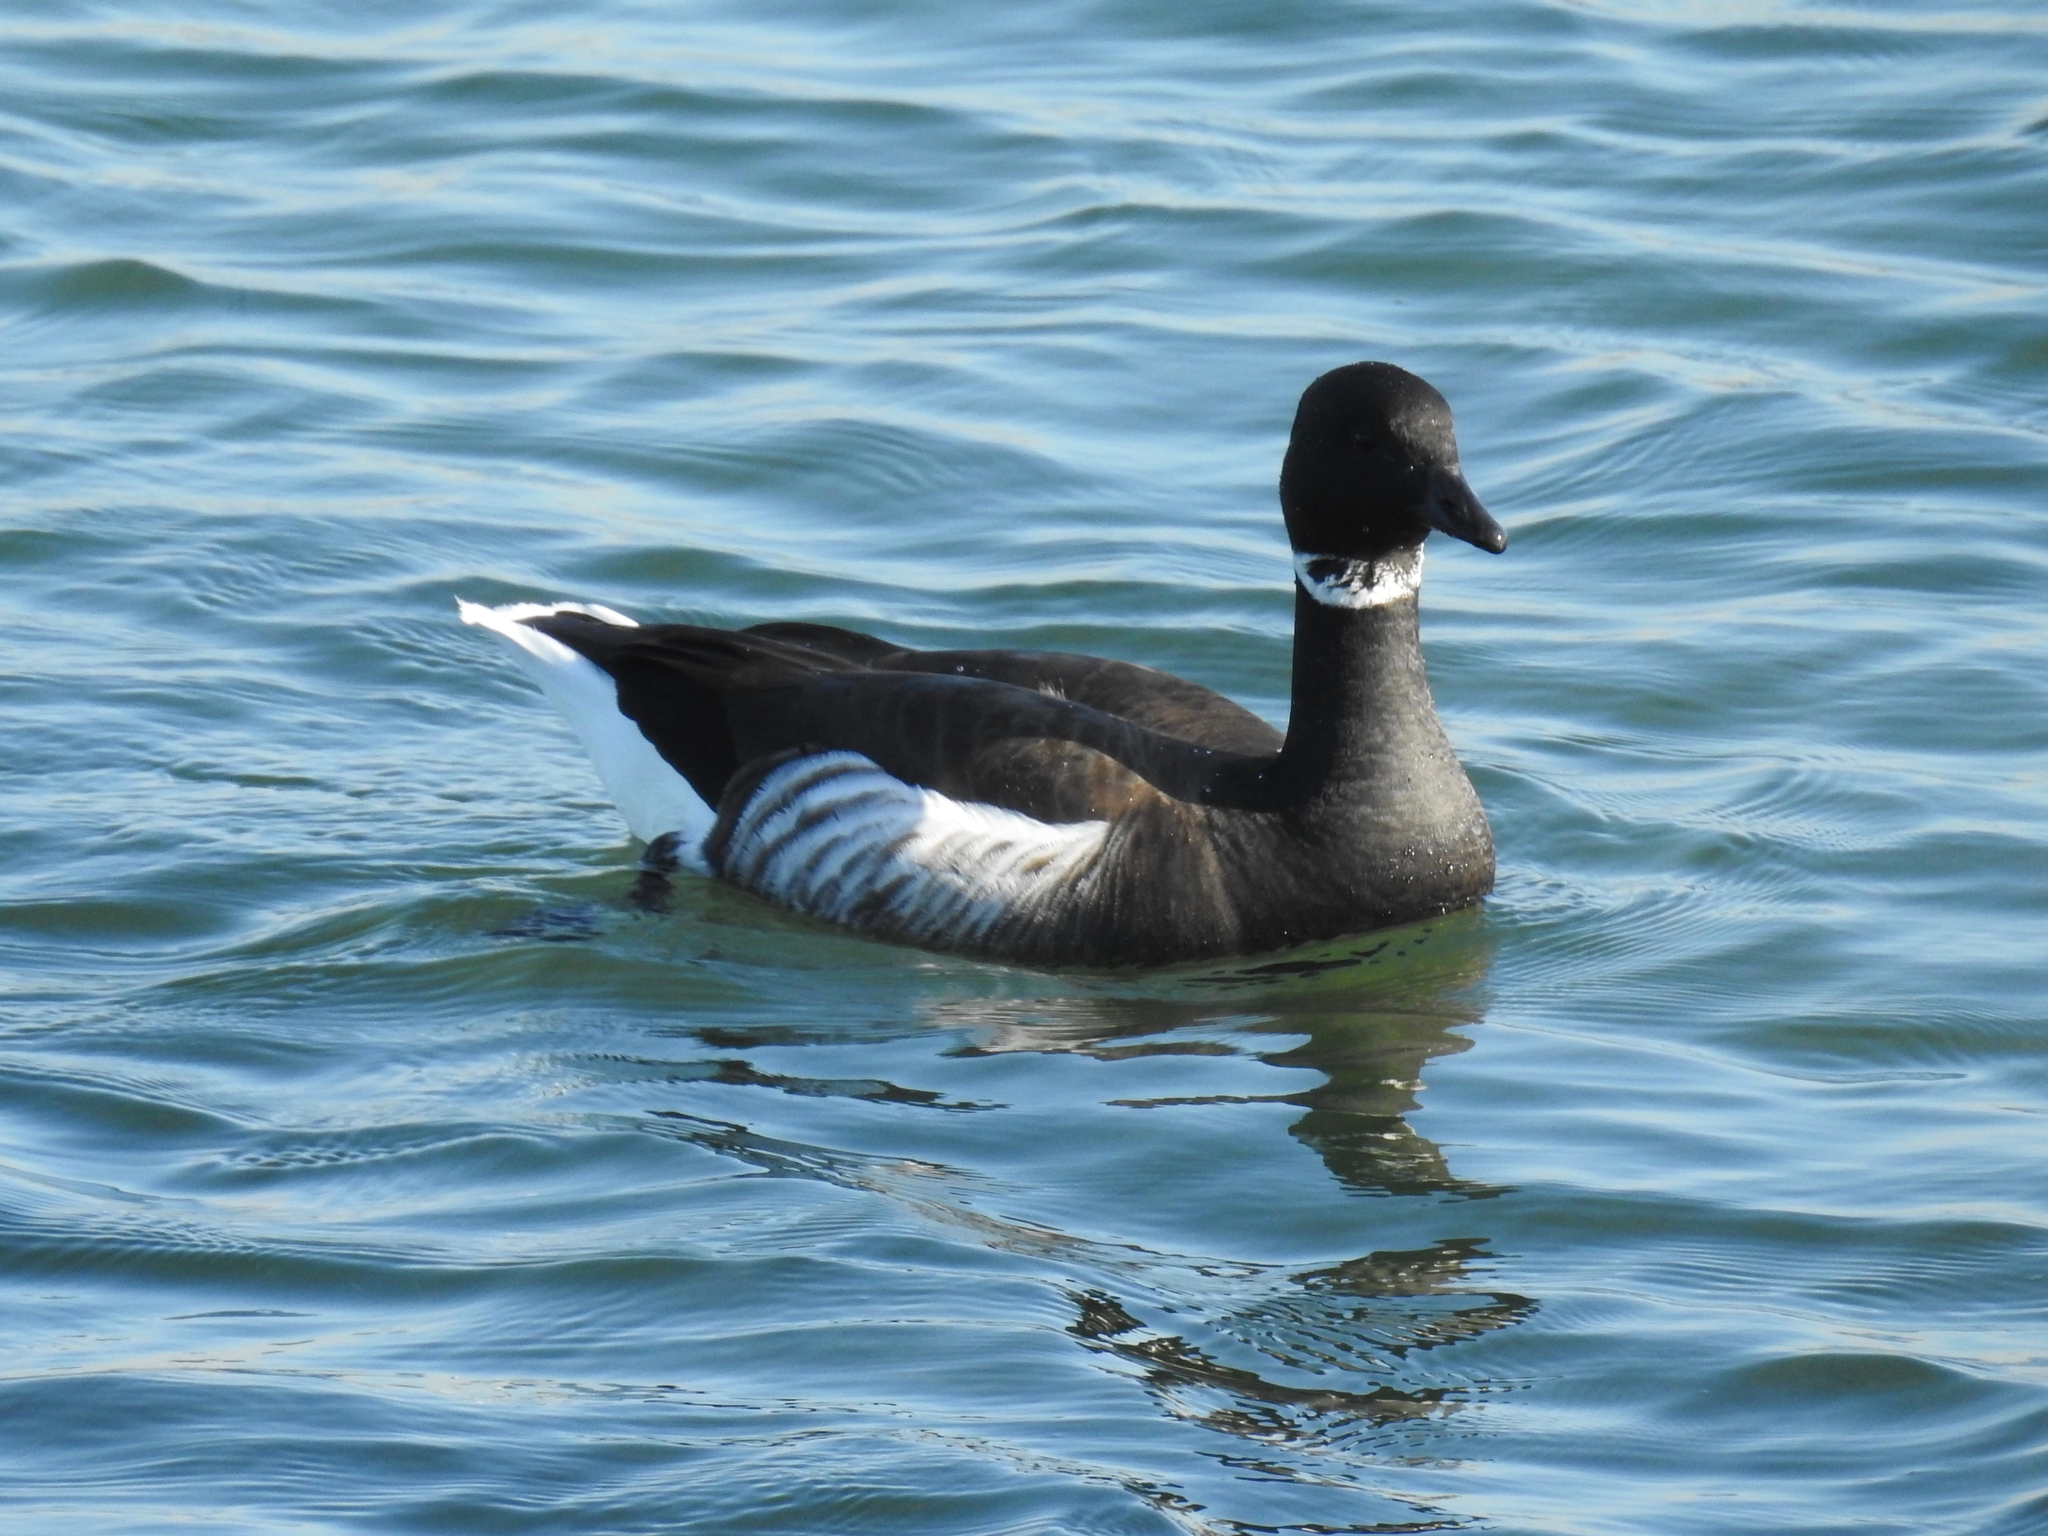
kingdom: Animalia
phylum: Chordata
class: Aves
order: Anseriformes
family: Anatidae
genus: Branta
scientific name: Branta bernicla
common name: Brant goose
